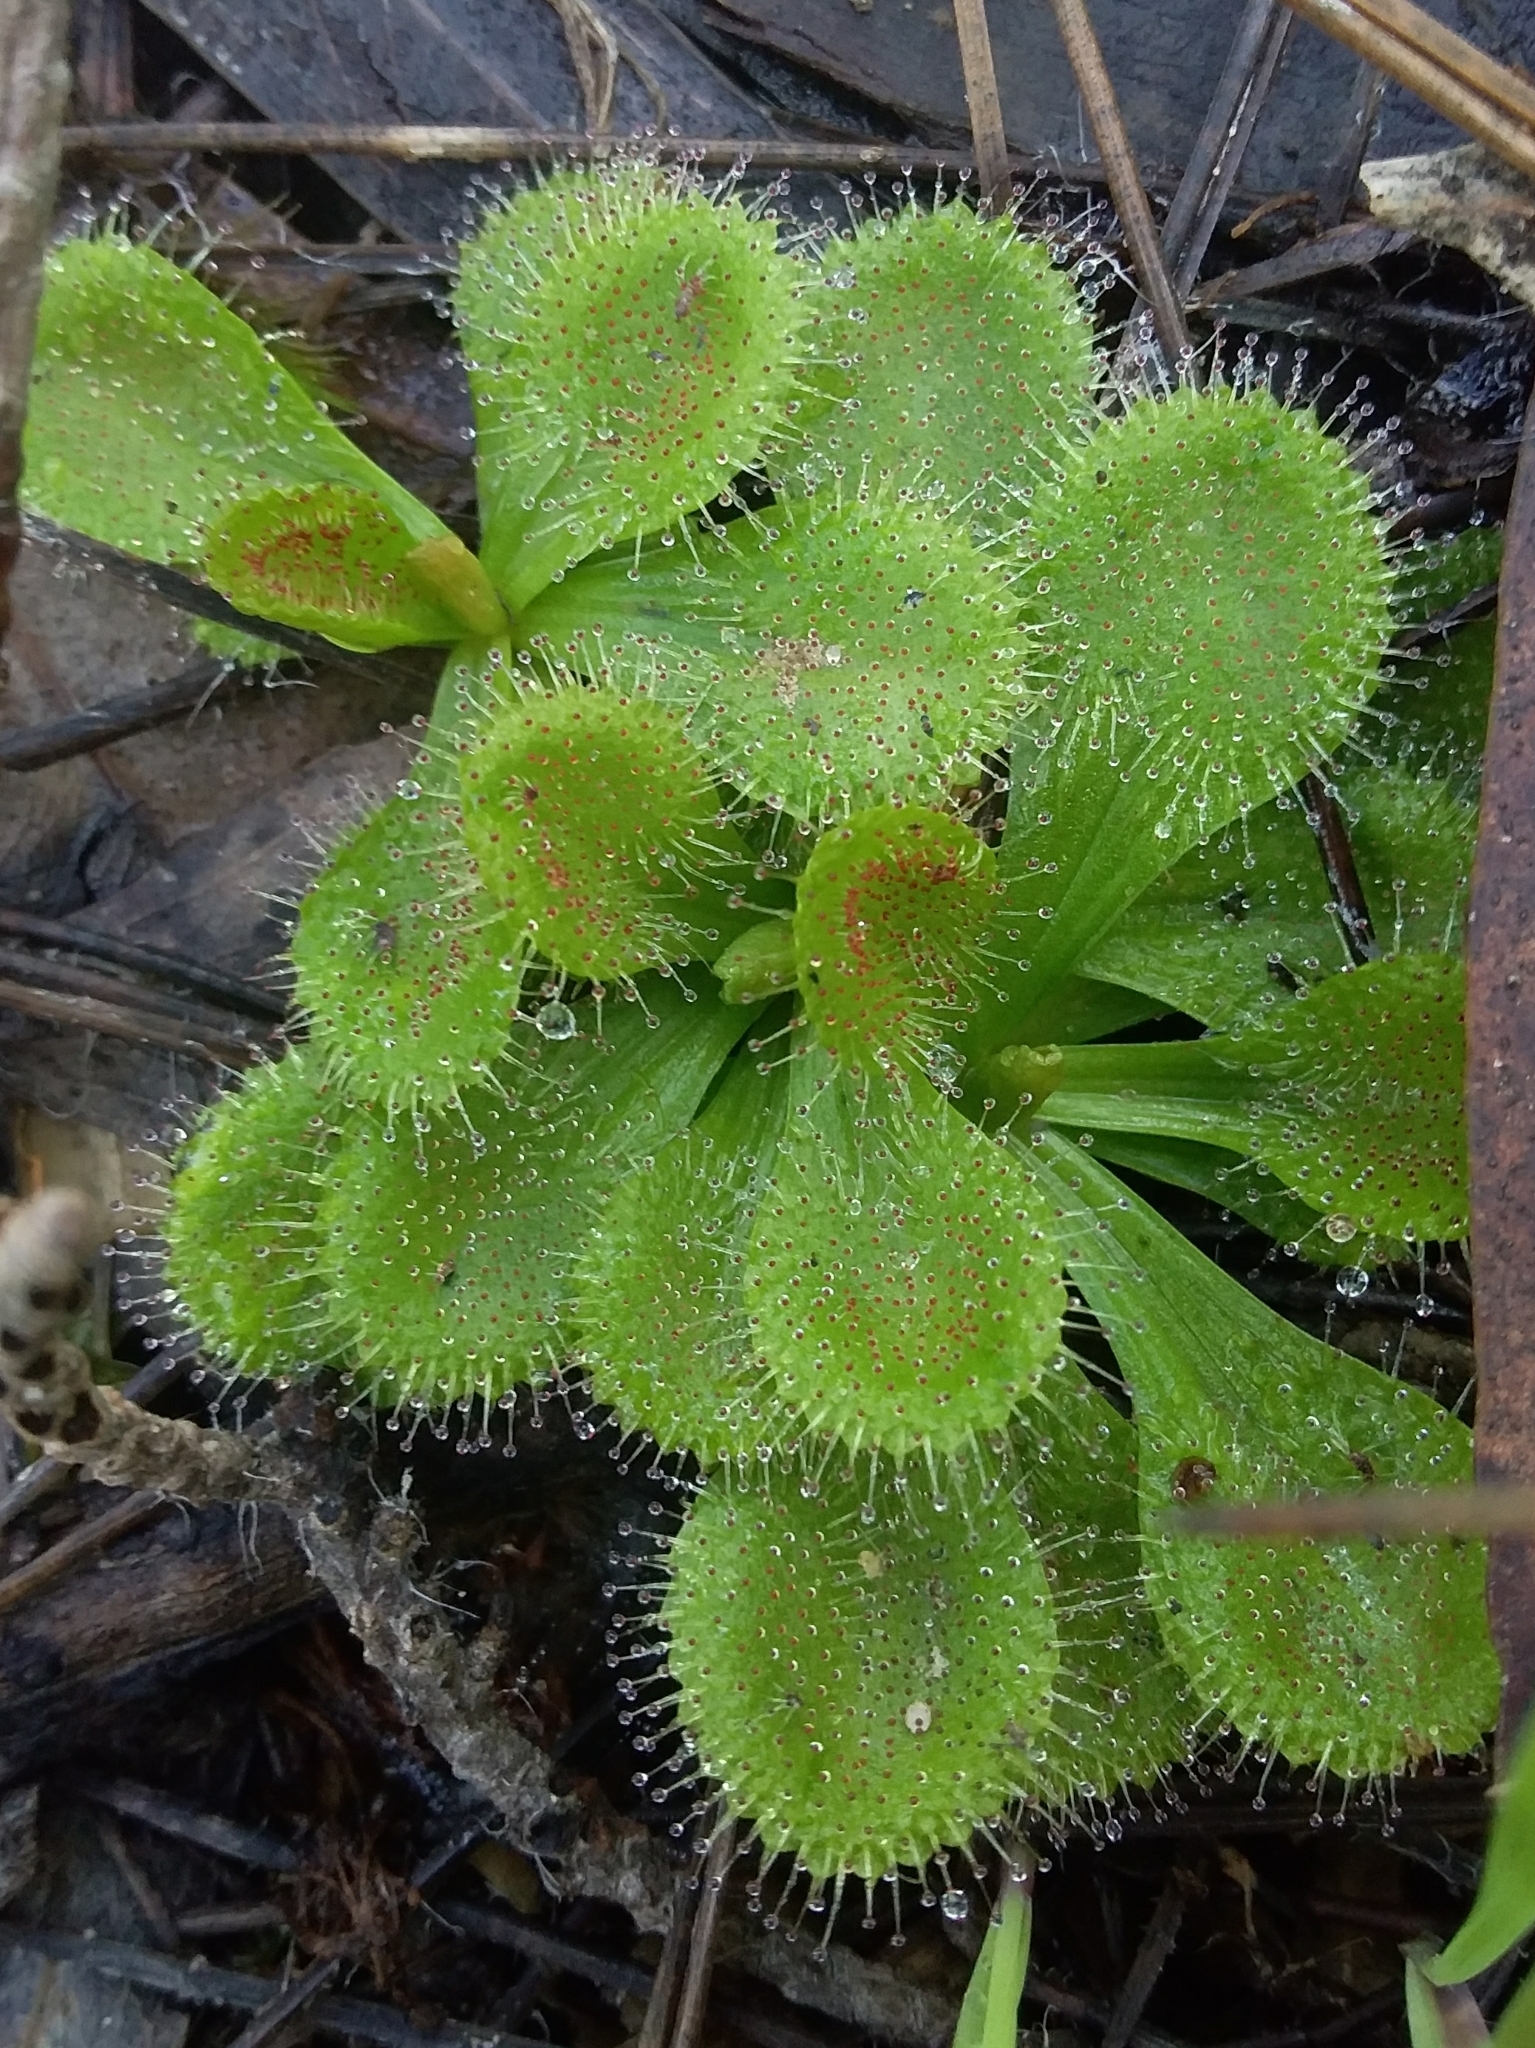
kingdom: Plantae
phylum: Tracheophyta
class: Magnoliopsida
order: Caryophyllales
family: Droseraceae
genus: Drosera
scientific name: Drosera whittakeri
